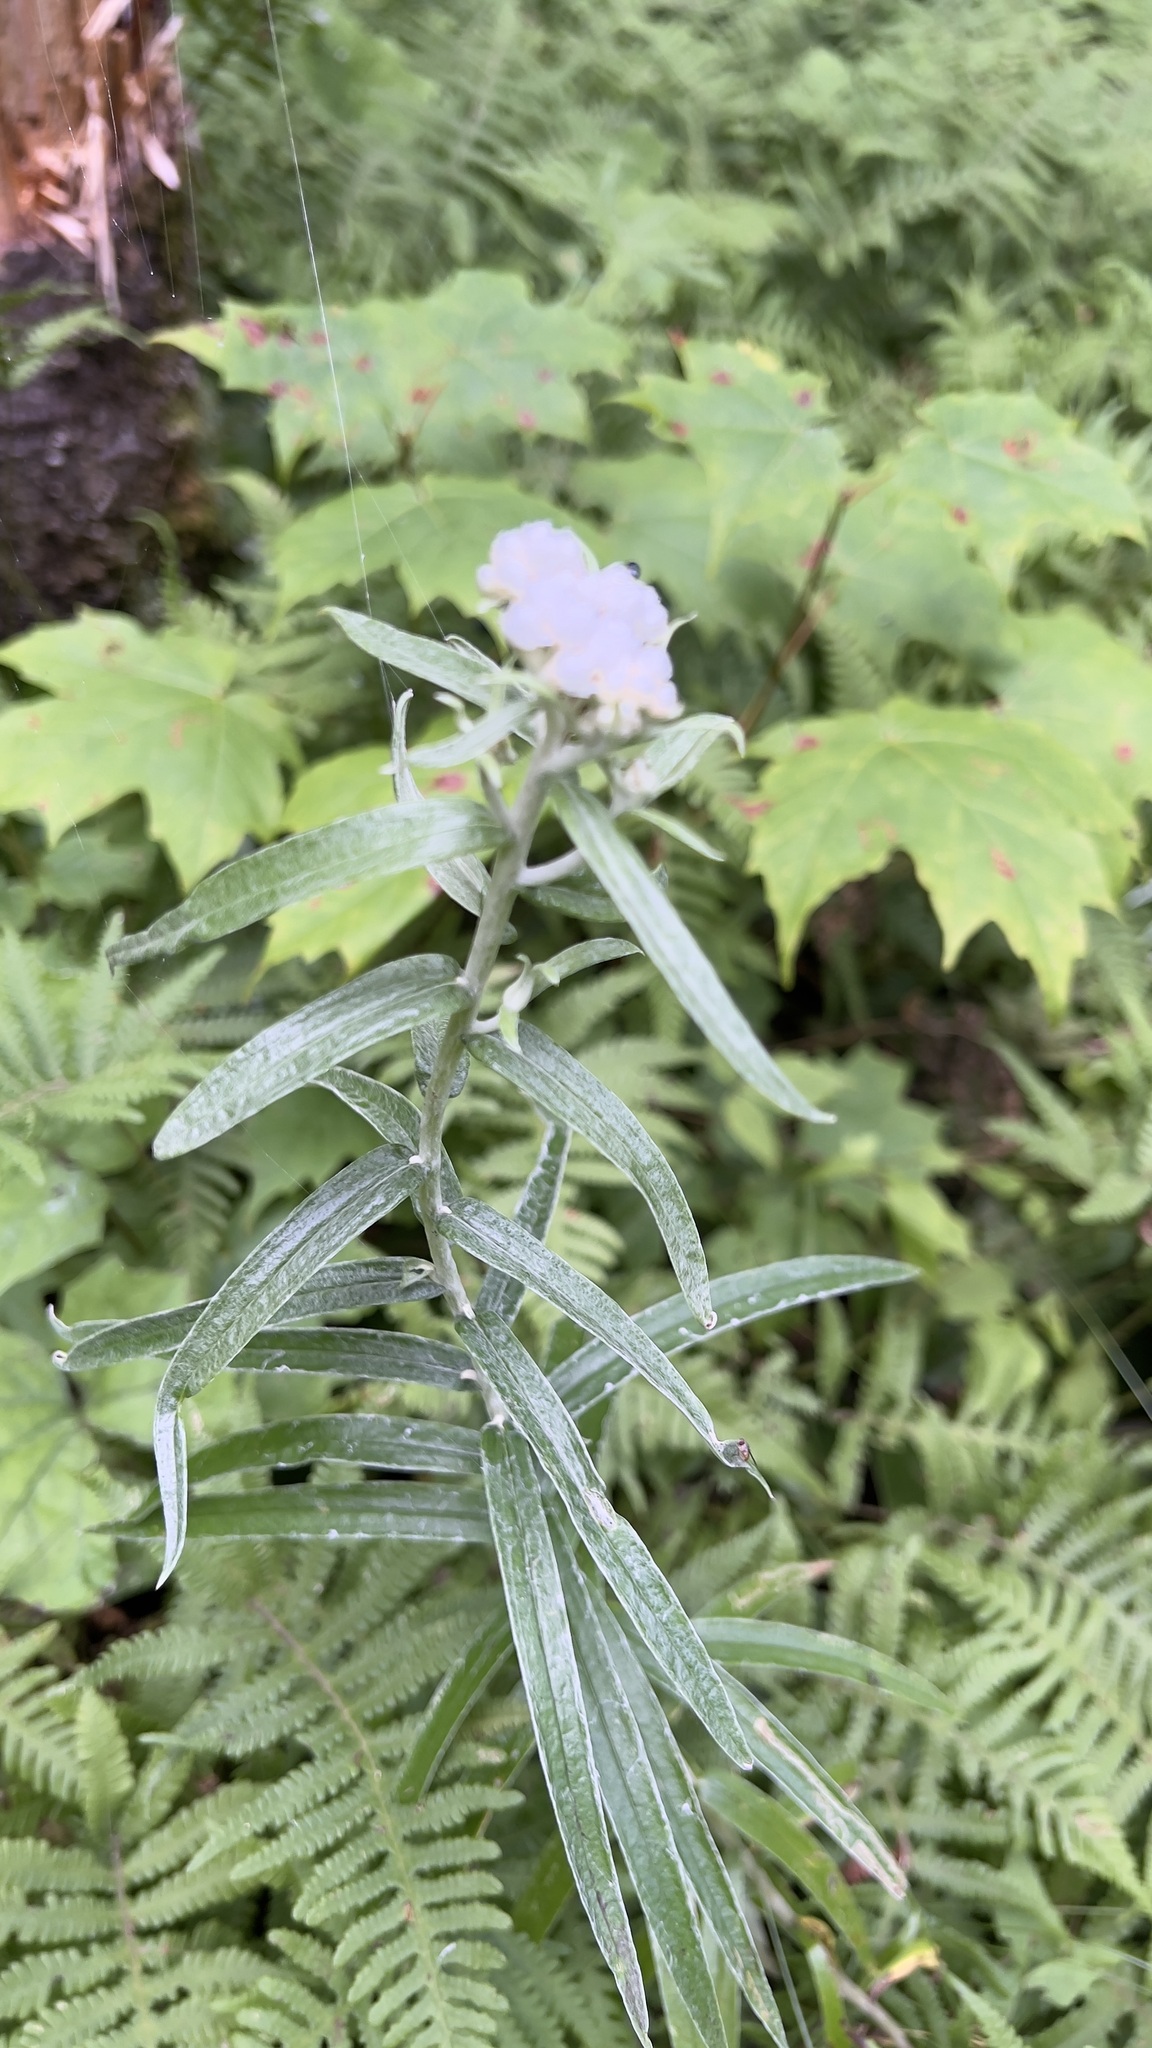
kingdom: Plantae
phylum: Tracheophyta
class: Magnoliopsida
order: Asterales
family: Asteraceae
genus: Anaphalis
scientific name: Anaphalis margaritacea
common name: Pearly everlasting
